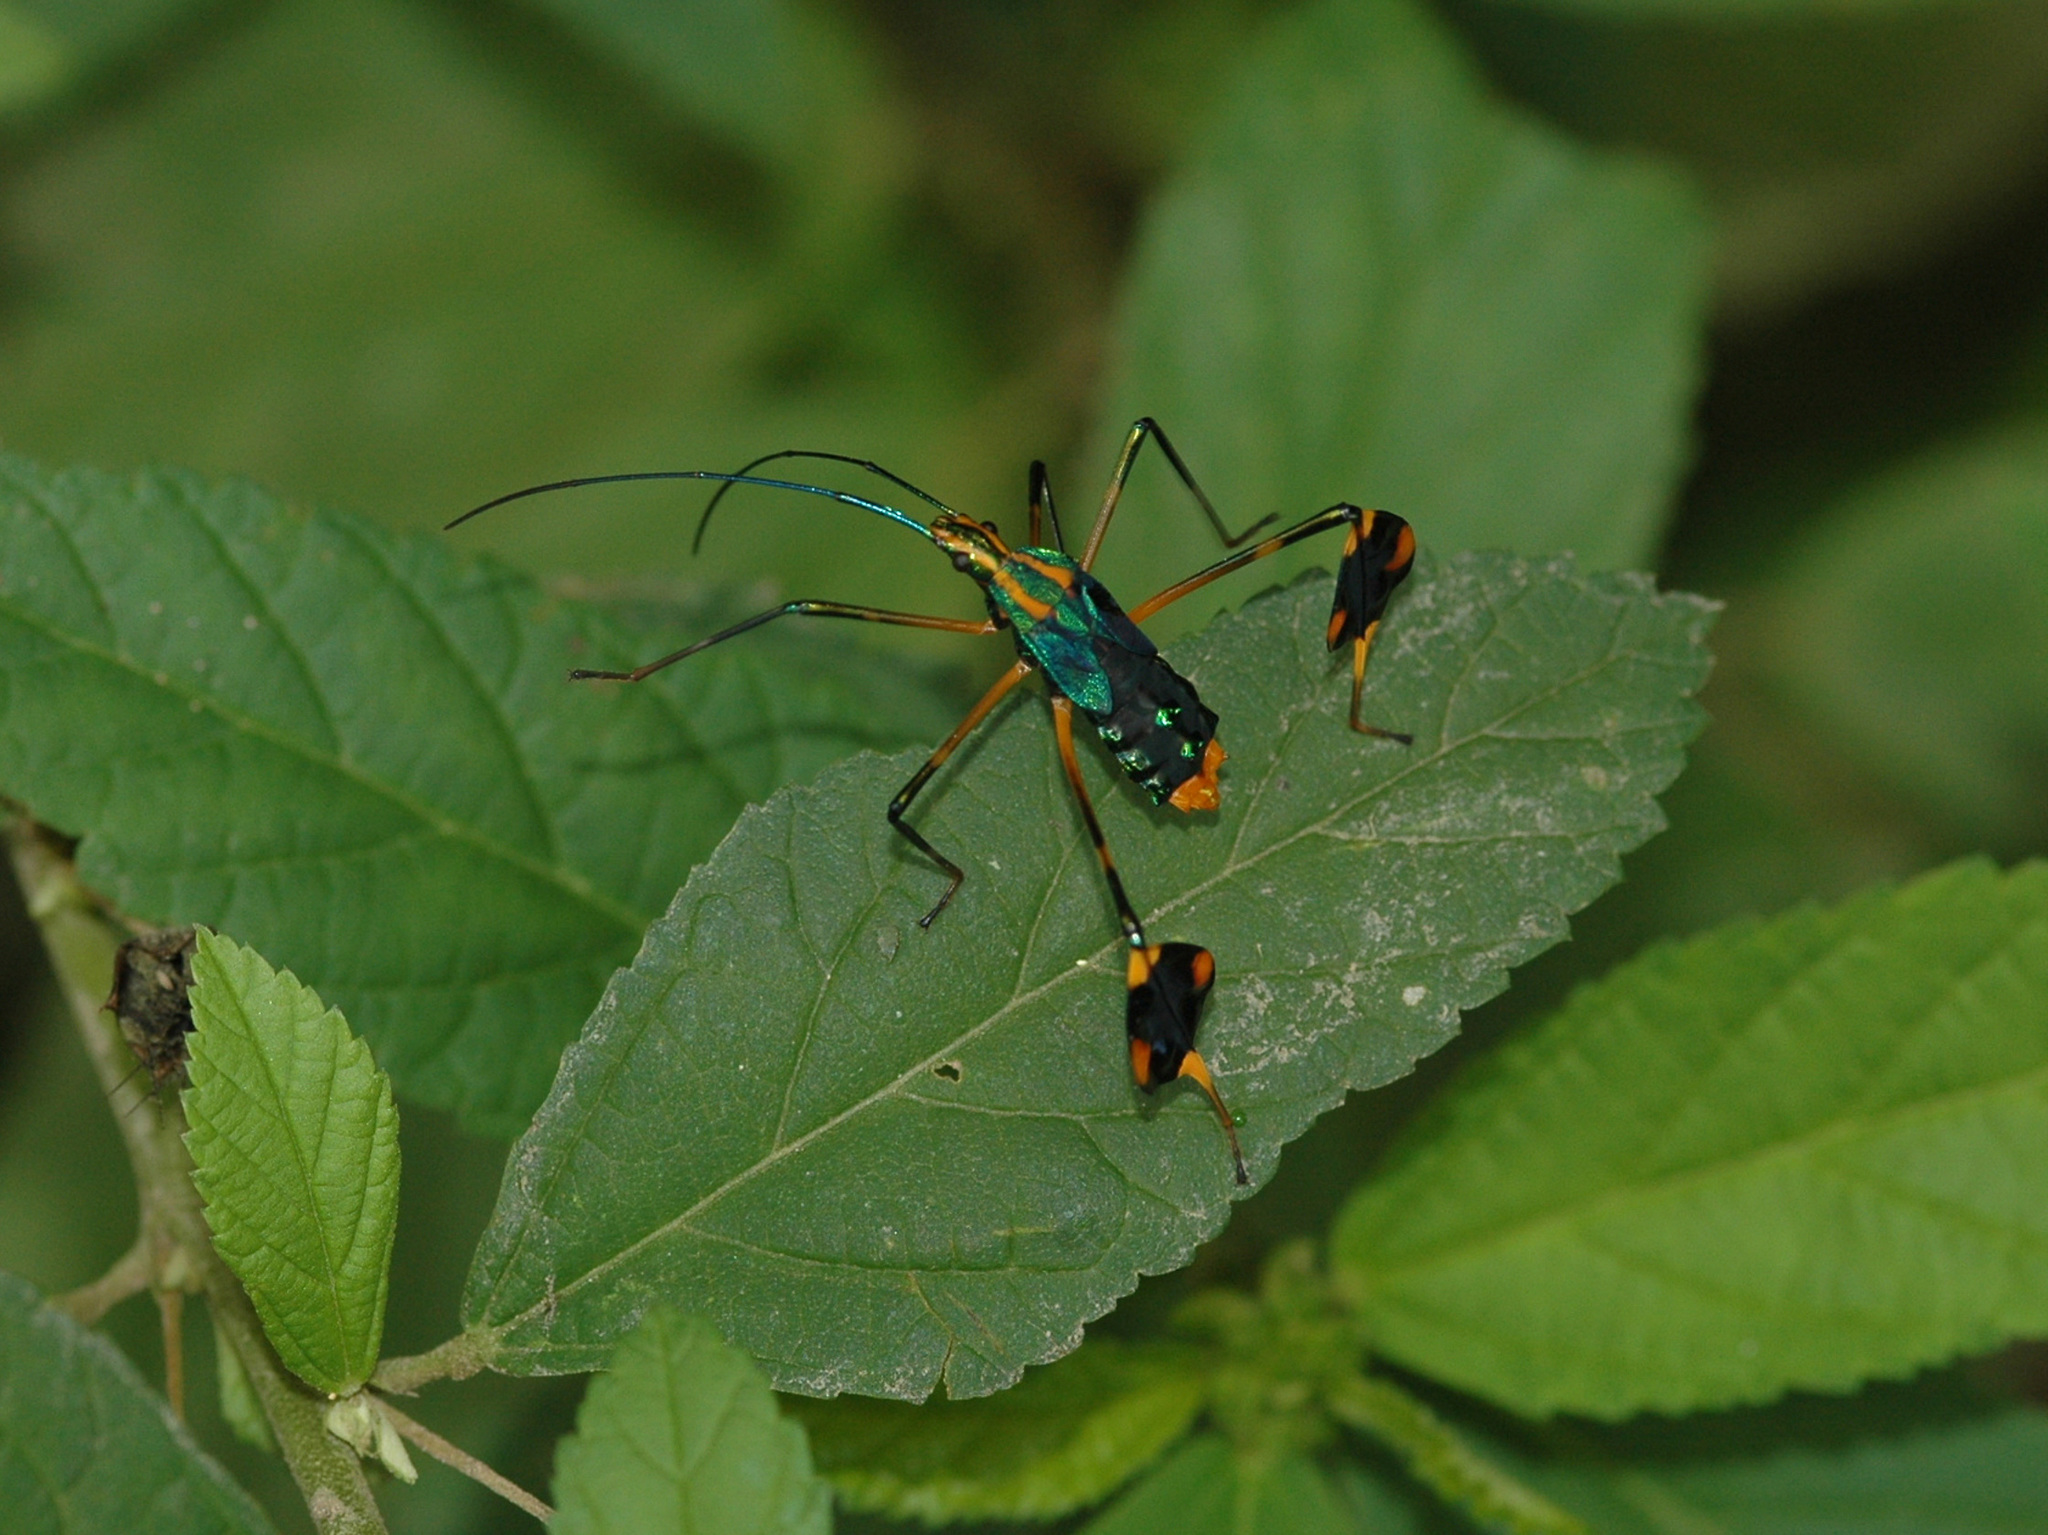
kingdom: Animalia
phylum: Arthropoda
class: Insecta
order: Hemiptera
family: Coreidae
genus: Diactor
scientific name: Diactor bogotanus
